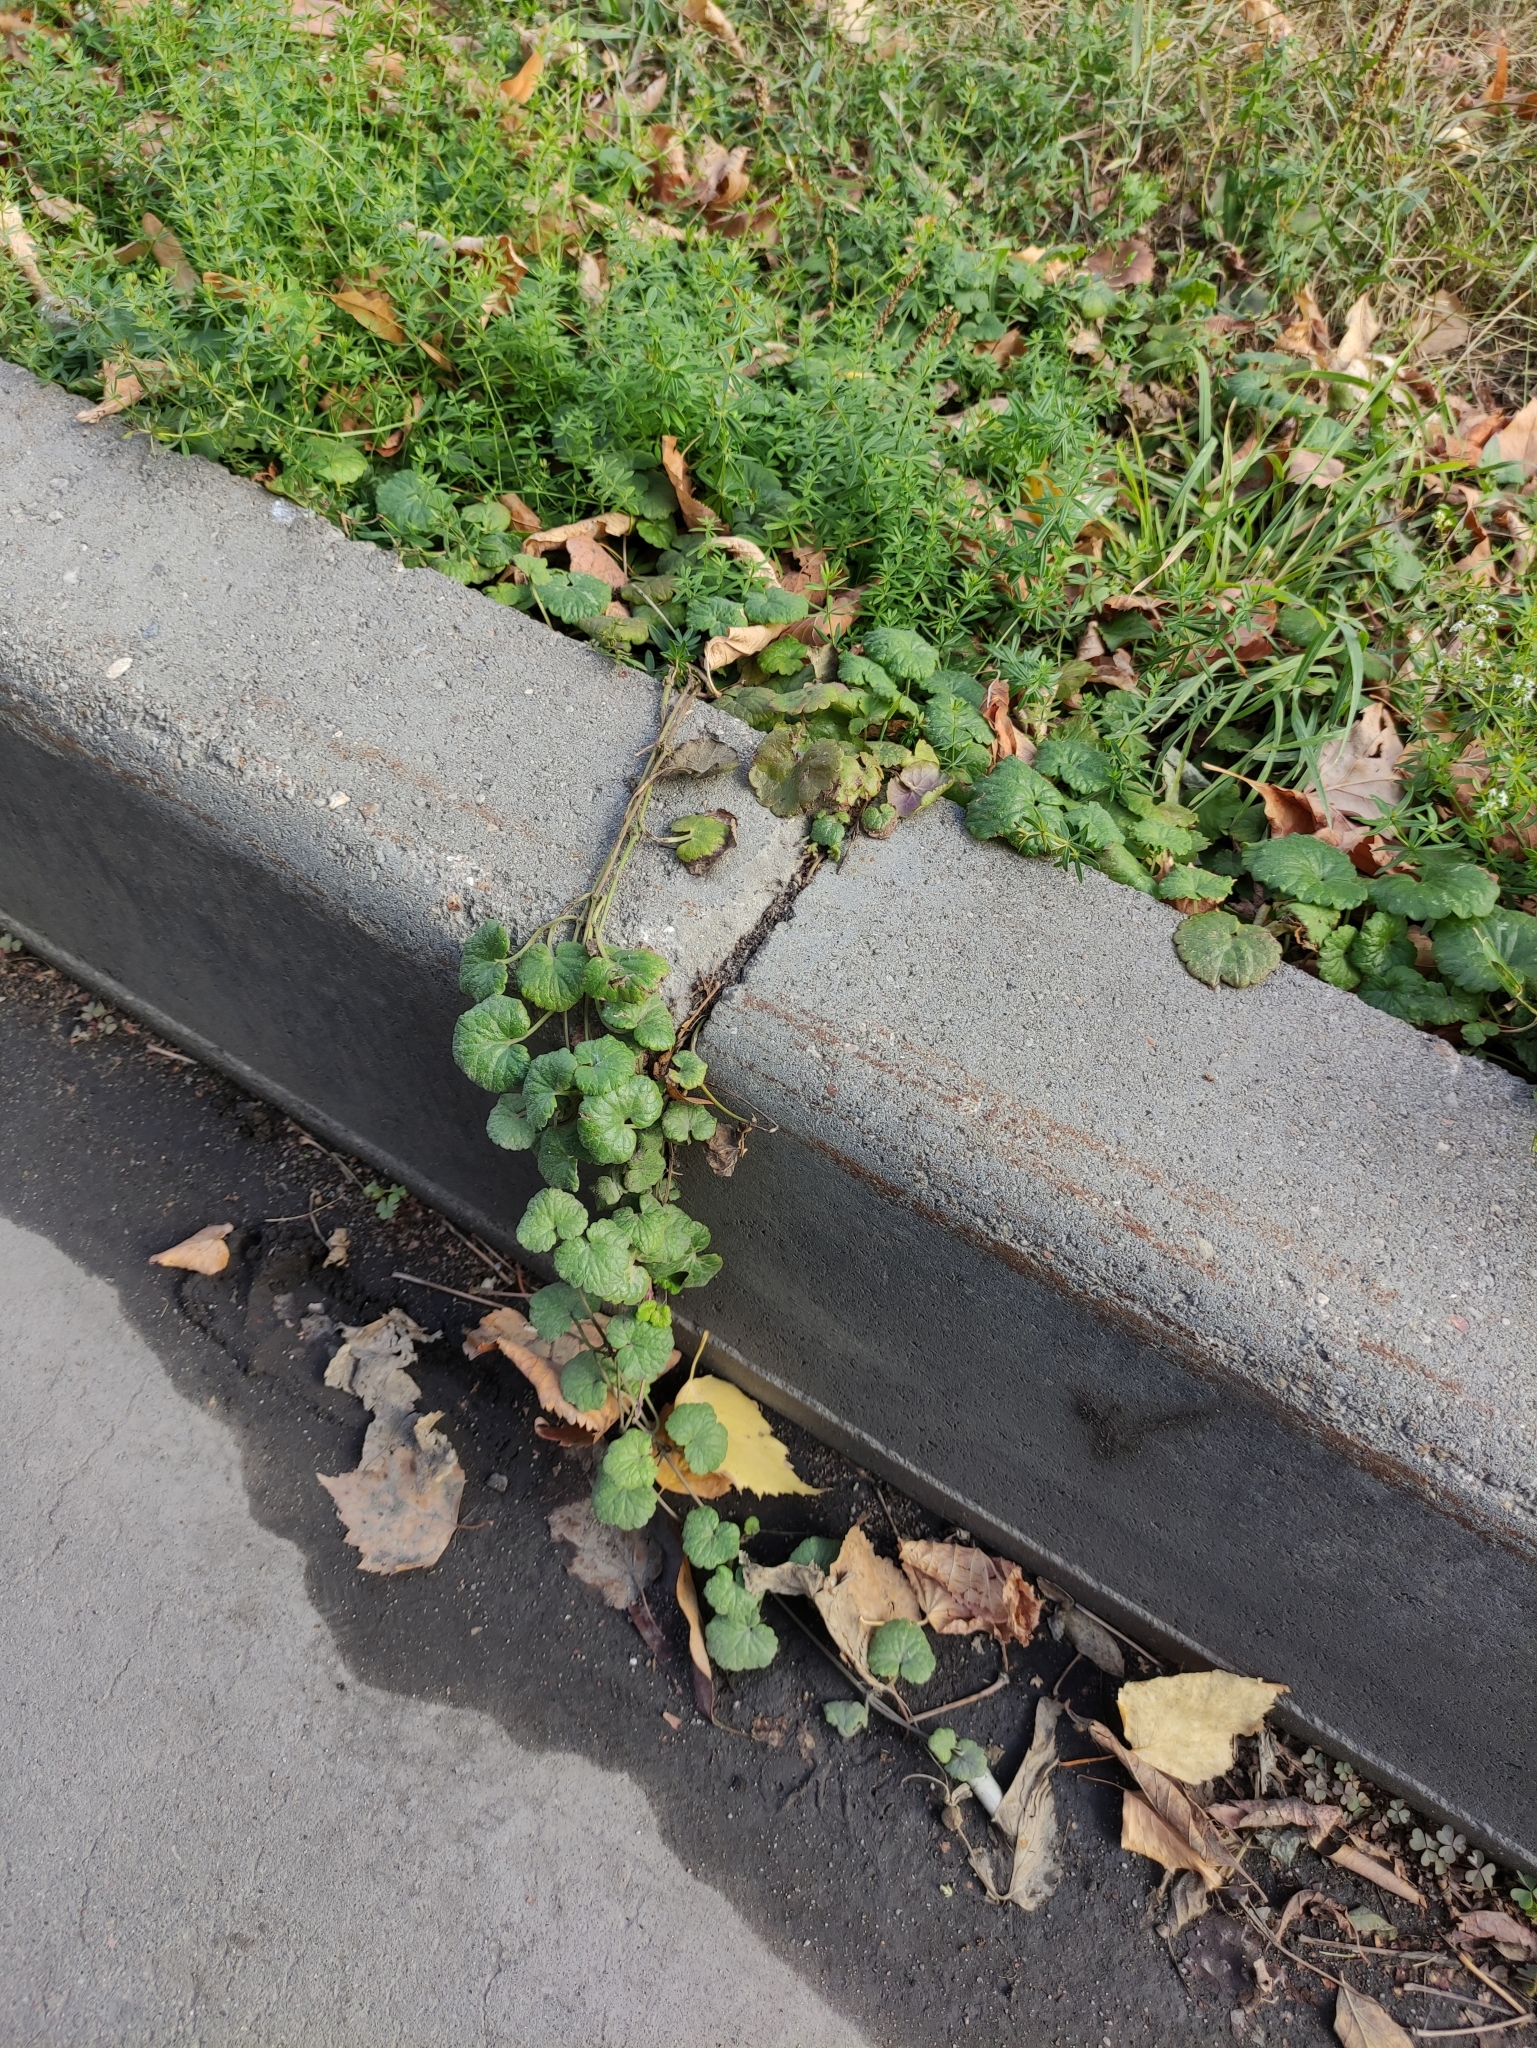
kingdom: Plantae
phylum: Tracheophyta
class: Magnoliopsida
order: Lamiales
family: Lamiaceae
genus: Glechoma
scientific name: Glechoma hederacea
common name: Ground ivy
